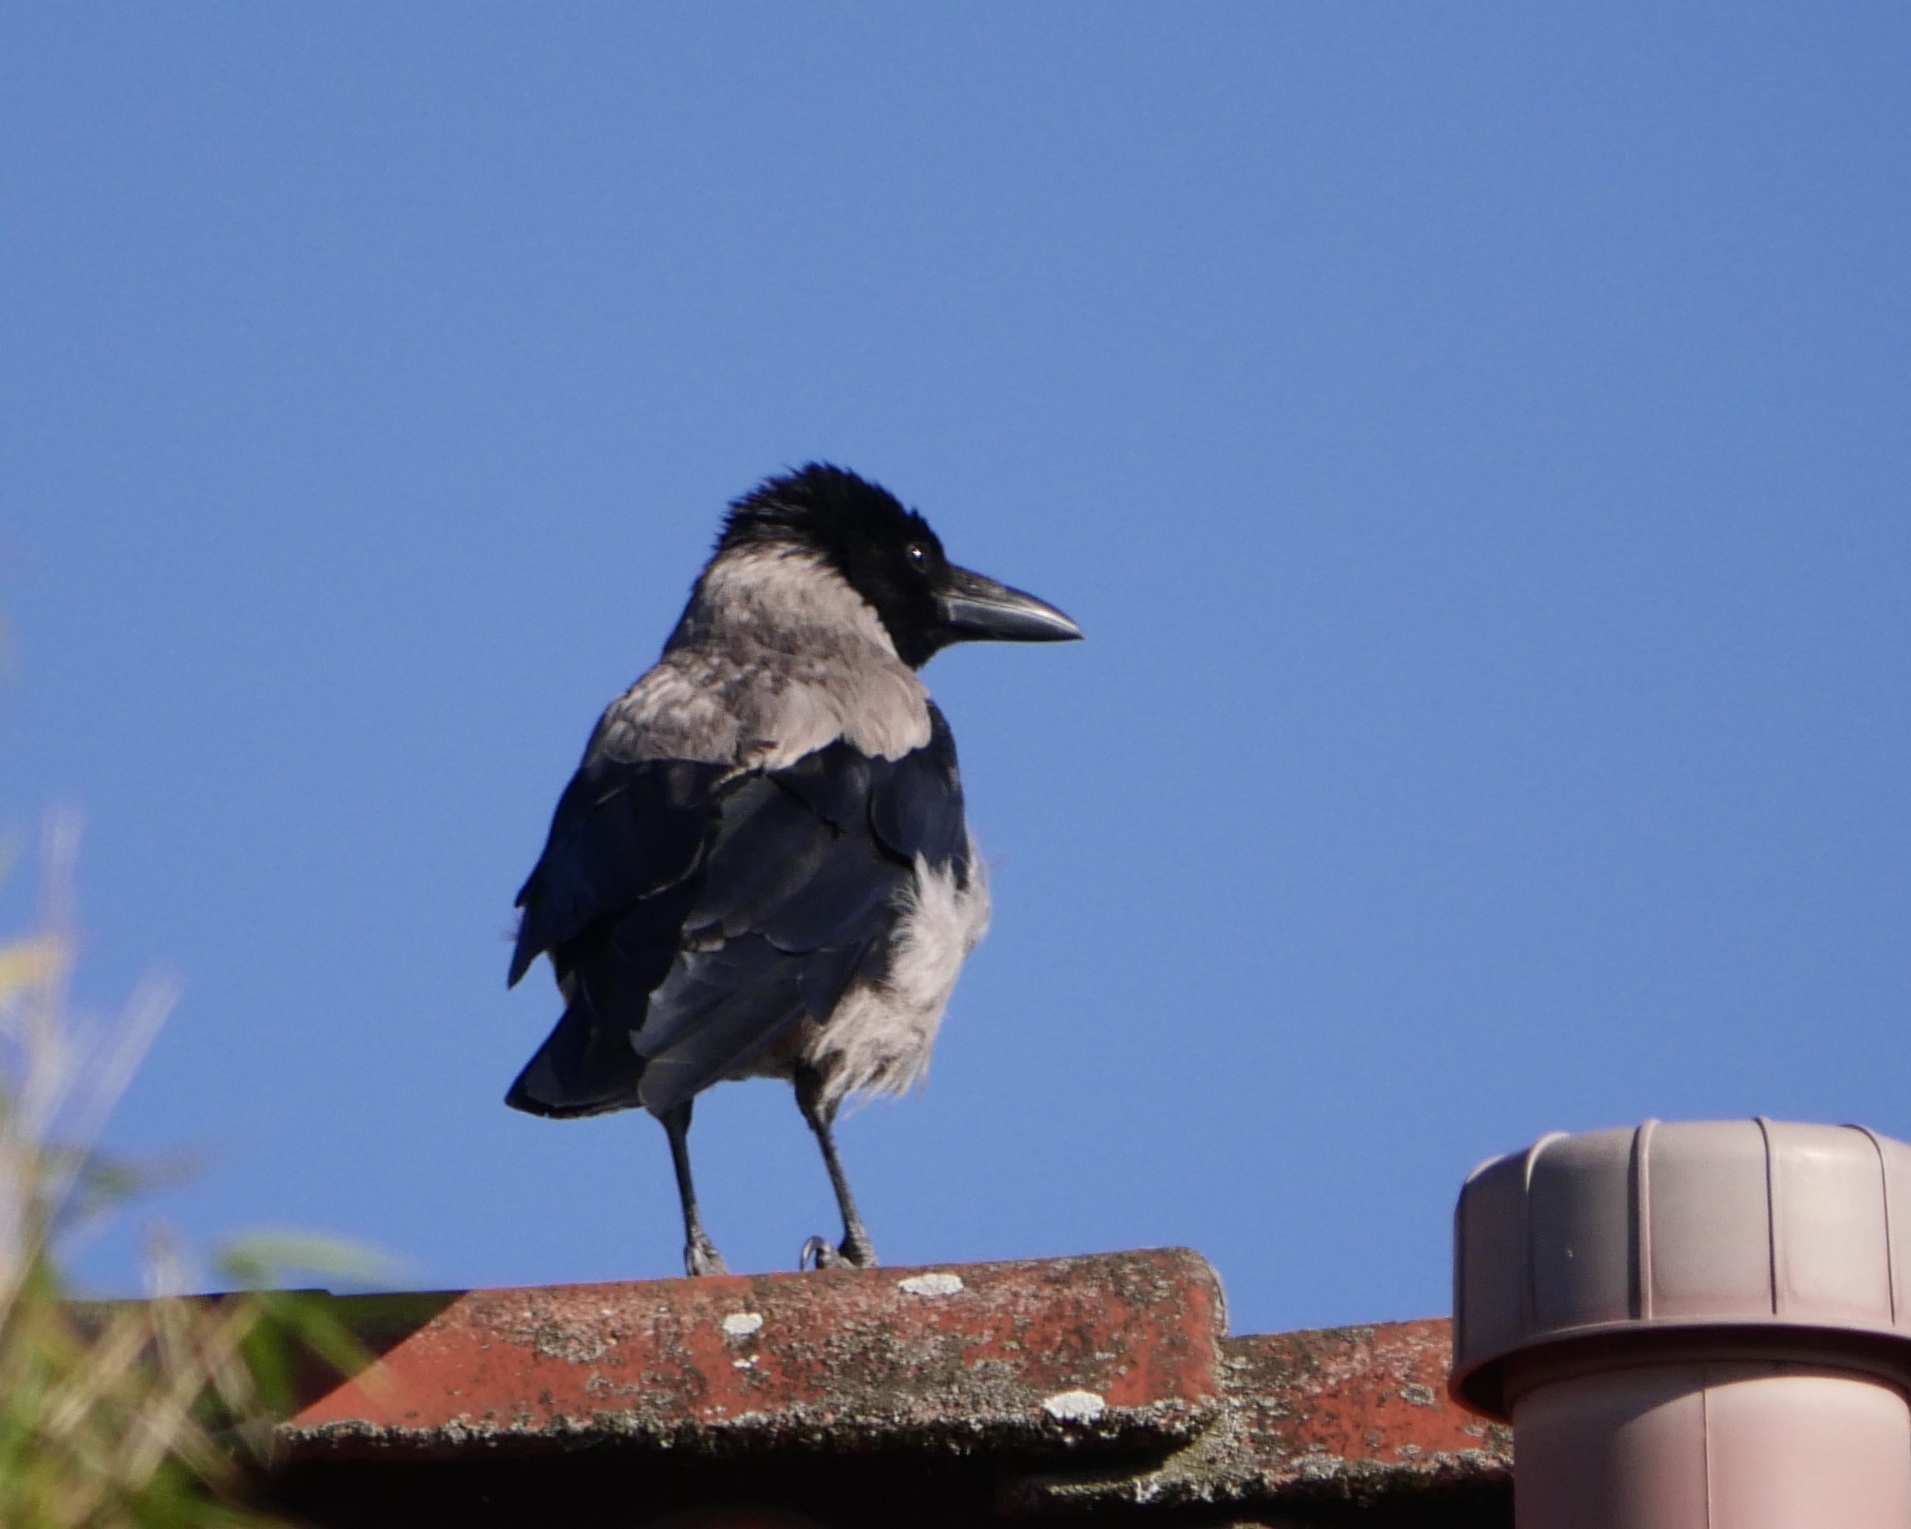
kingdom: Animalia
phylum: Chordata
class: Aves
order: Passeriformes
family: Corvidae
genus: Corvus
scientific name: Corvus cornix
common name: Hooded crow
